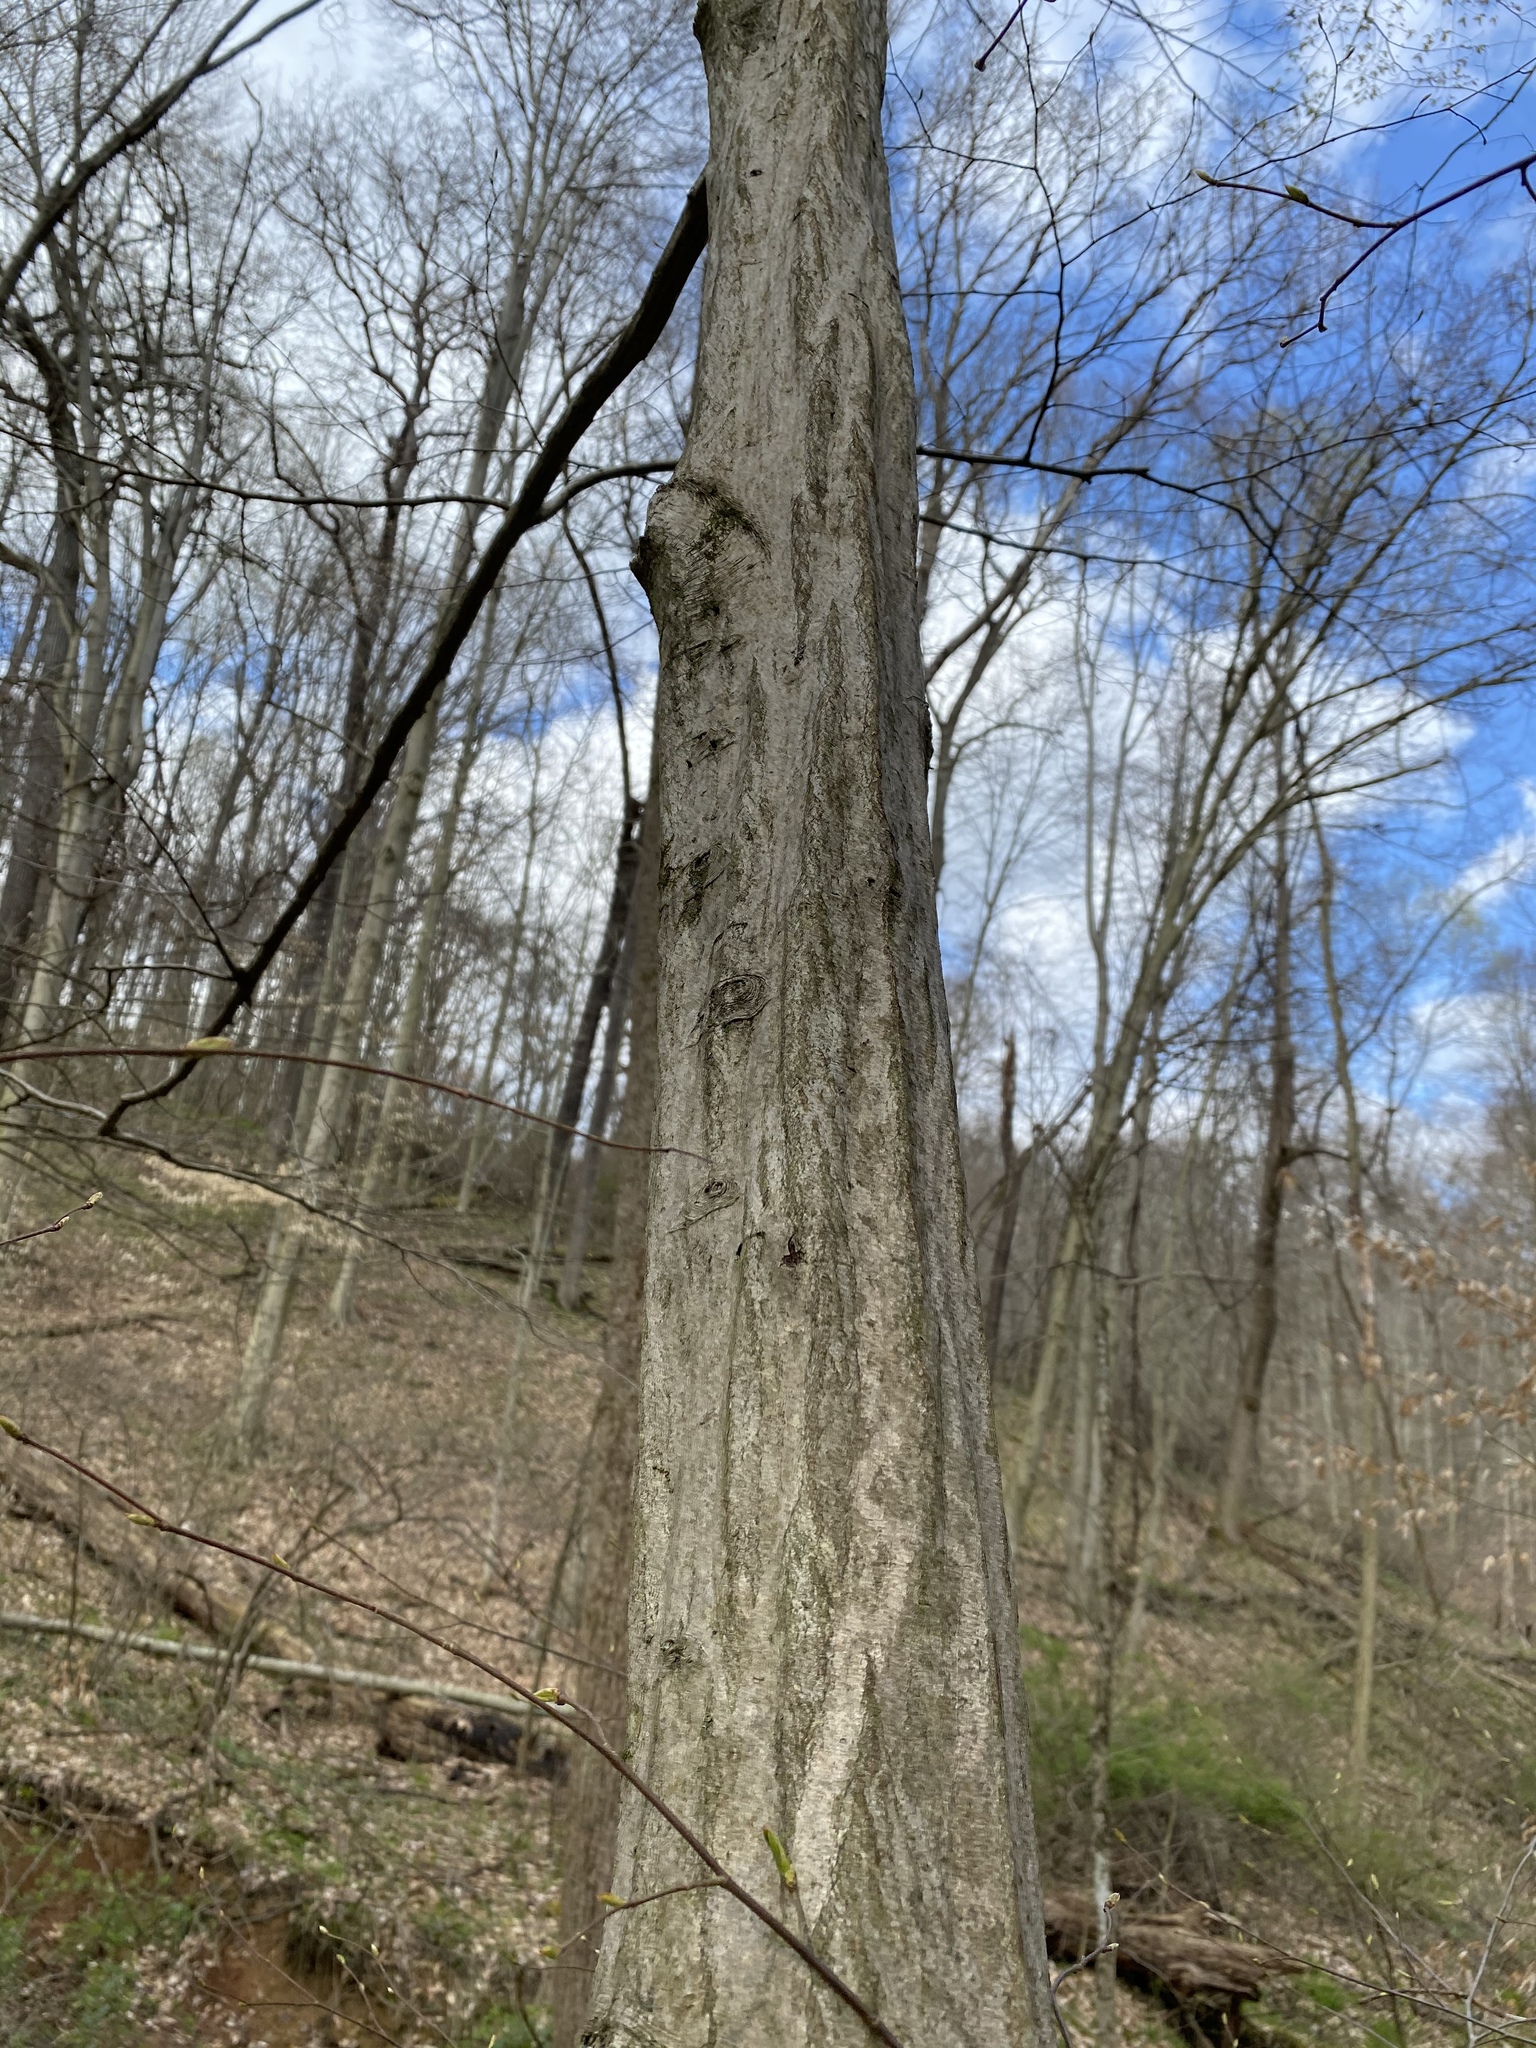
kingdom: Plantae
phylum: Tracheophyta
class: Magnoliopsida
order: Fagales
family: Betulaceae
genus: Carpinus
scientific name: Carpinus caroliniana
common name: American hornbeam
